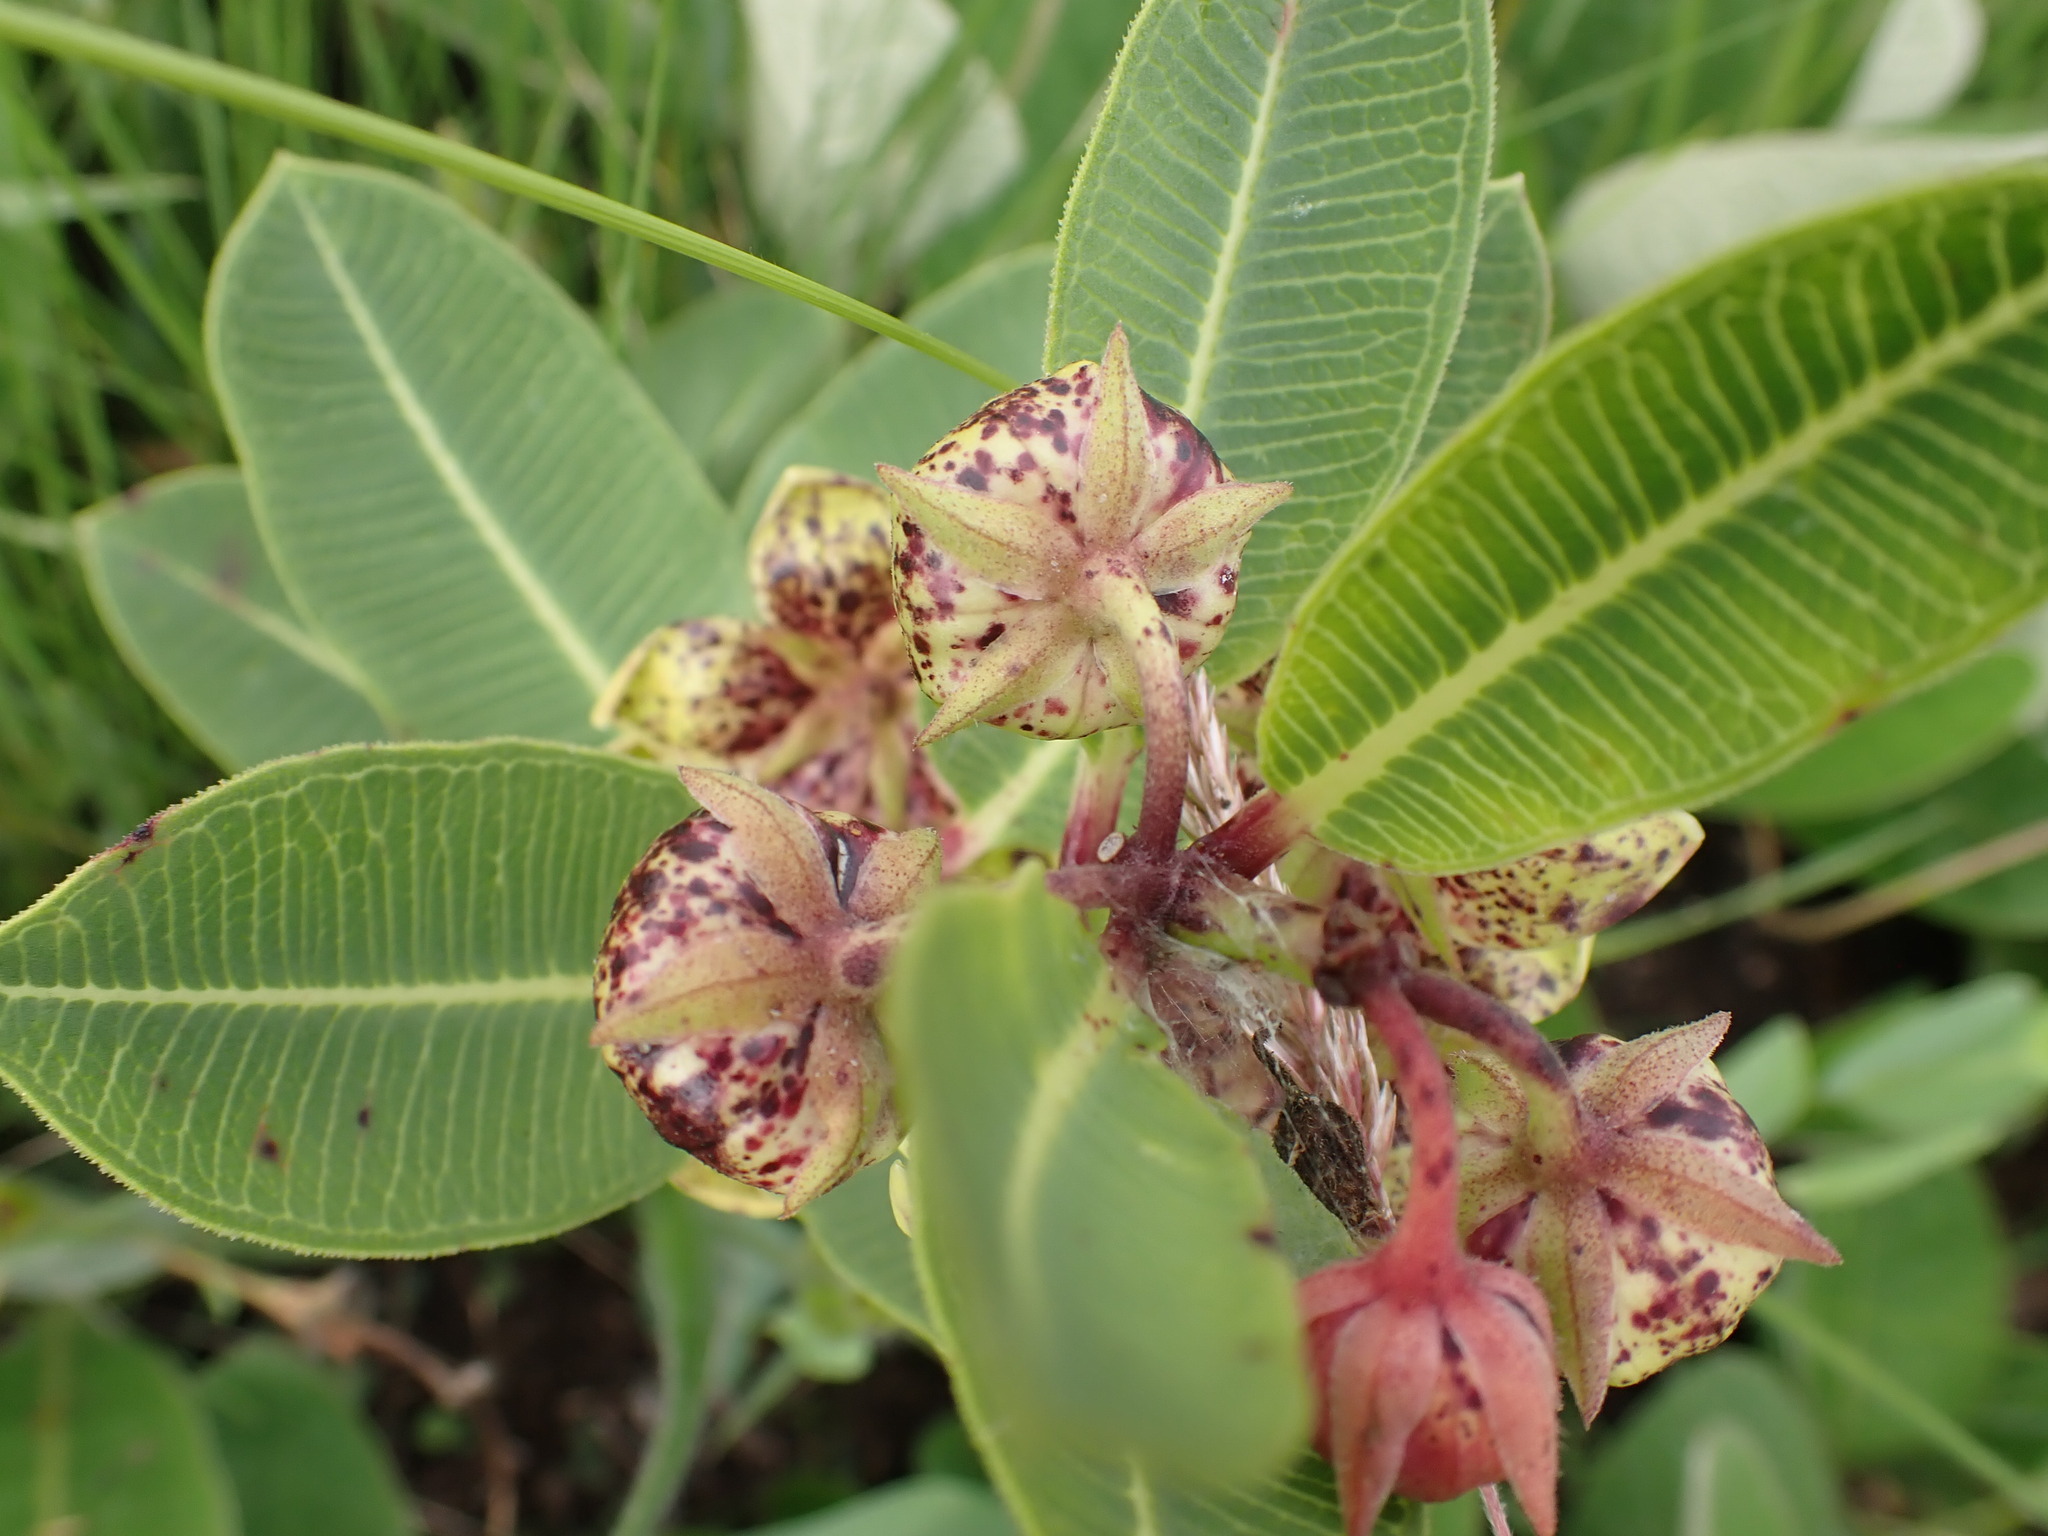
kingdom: Plantae
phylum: Tracheophyta
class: Magnoliopsida
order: Gentianales
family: Apocynaceae
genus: Pachycarpus
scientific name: Pachycarpus natalensis
